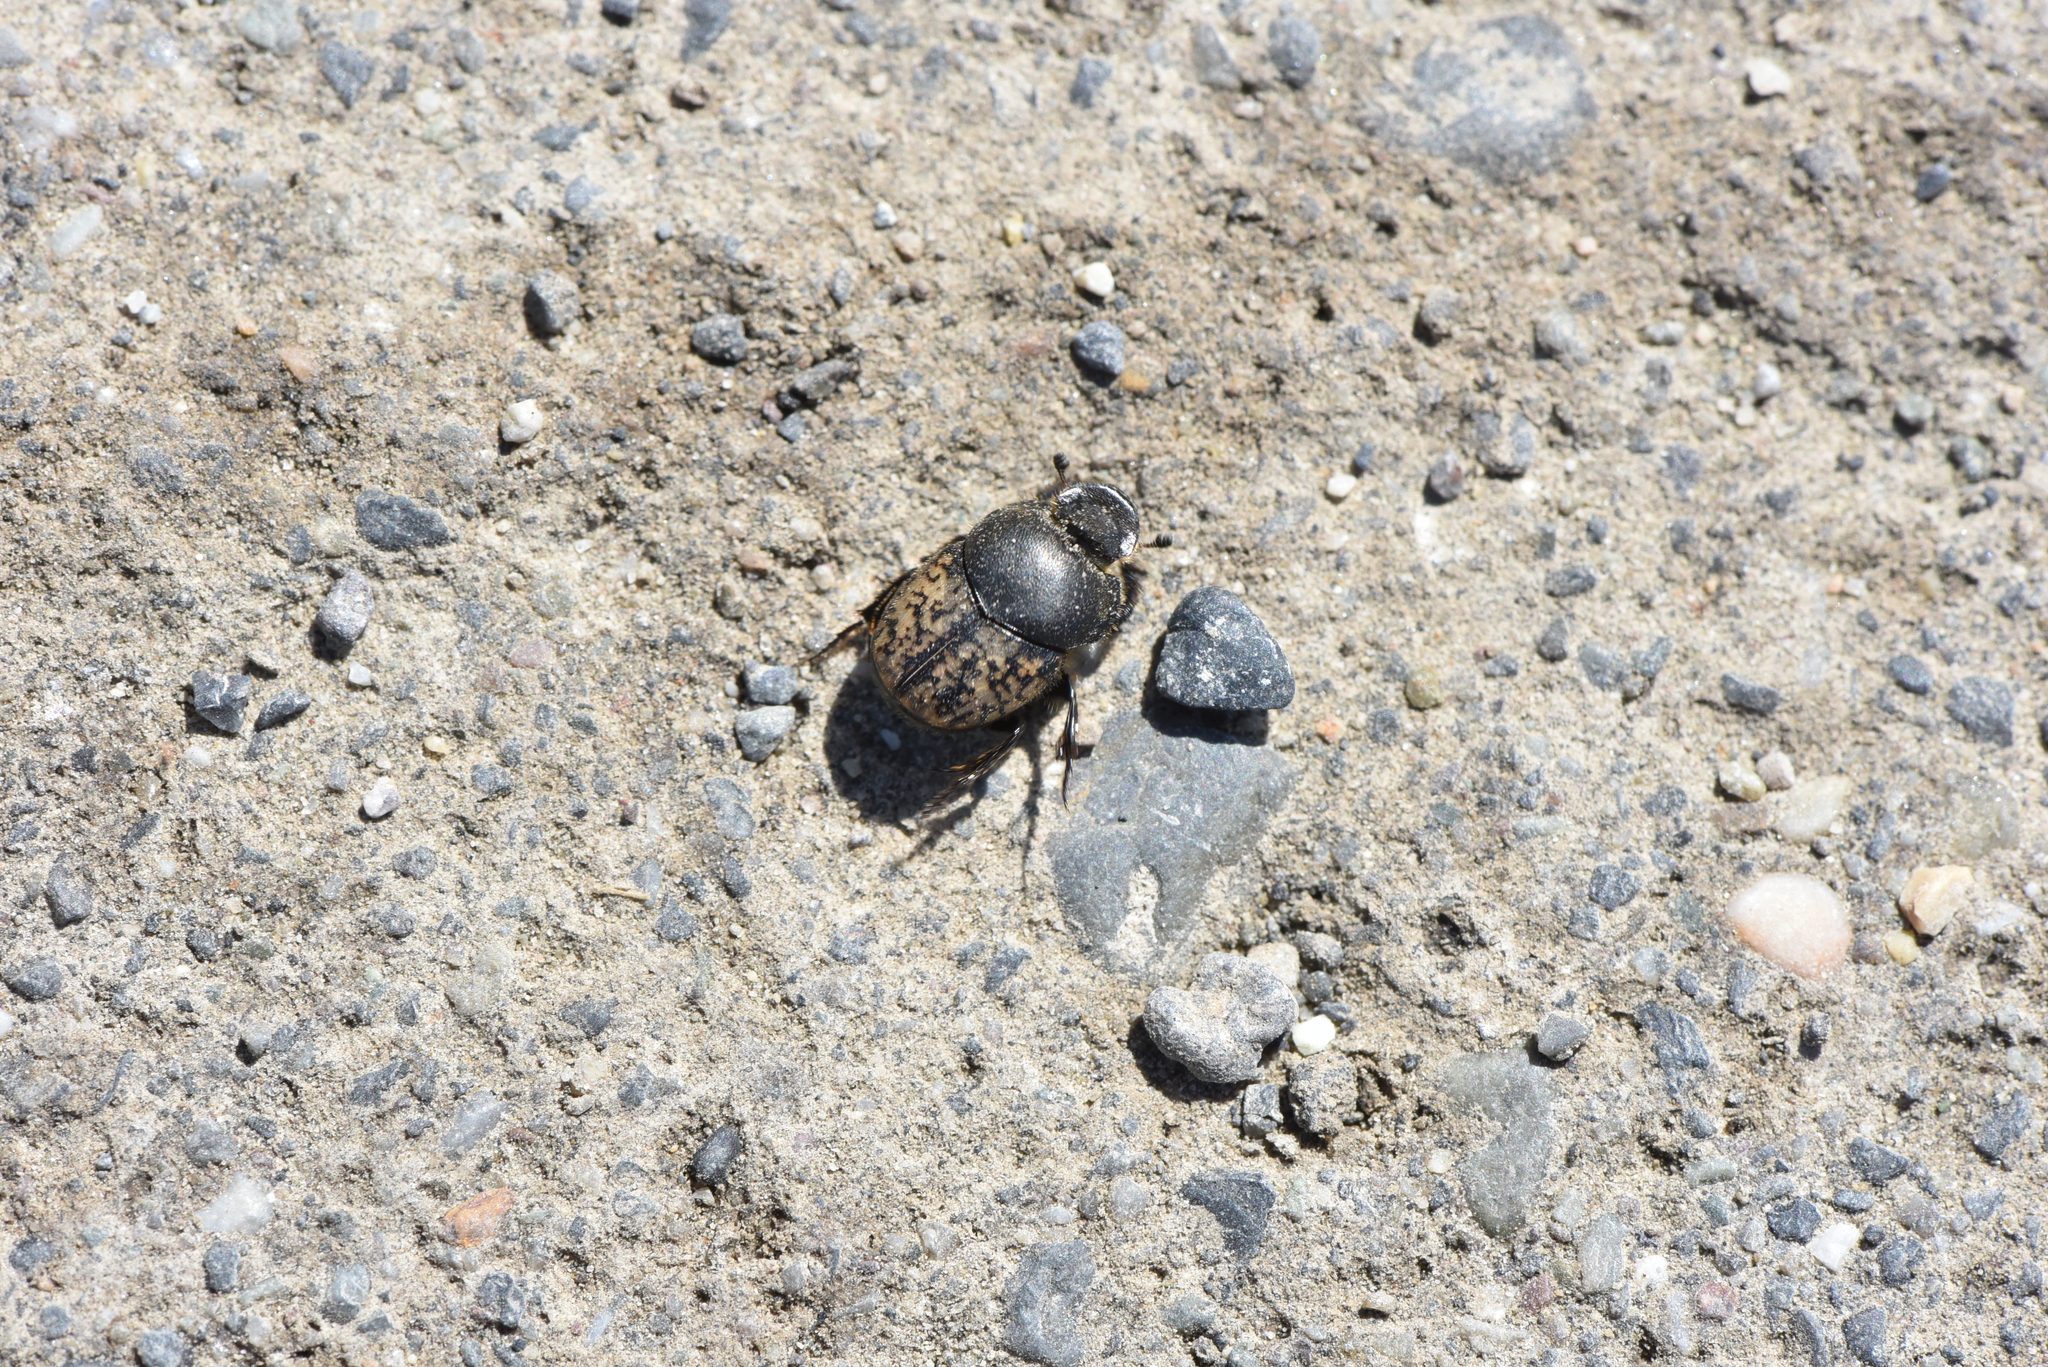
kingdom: Animalia
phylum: Arthropoda
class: Insecta
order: Coleoptera
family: Scarabaeidae
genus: Onthophagus
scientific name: Onthophagus nuchicornis
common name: Mottled dung beetle
